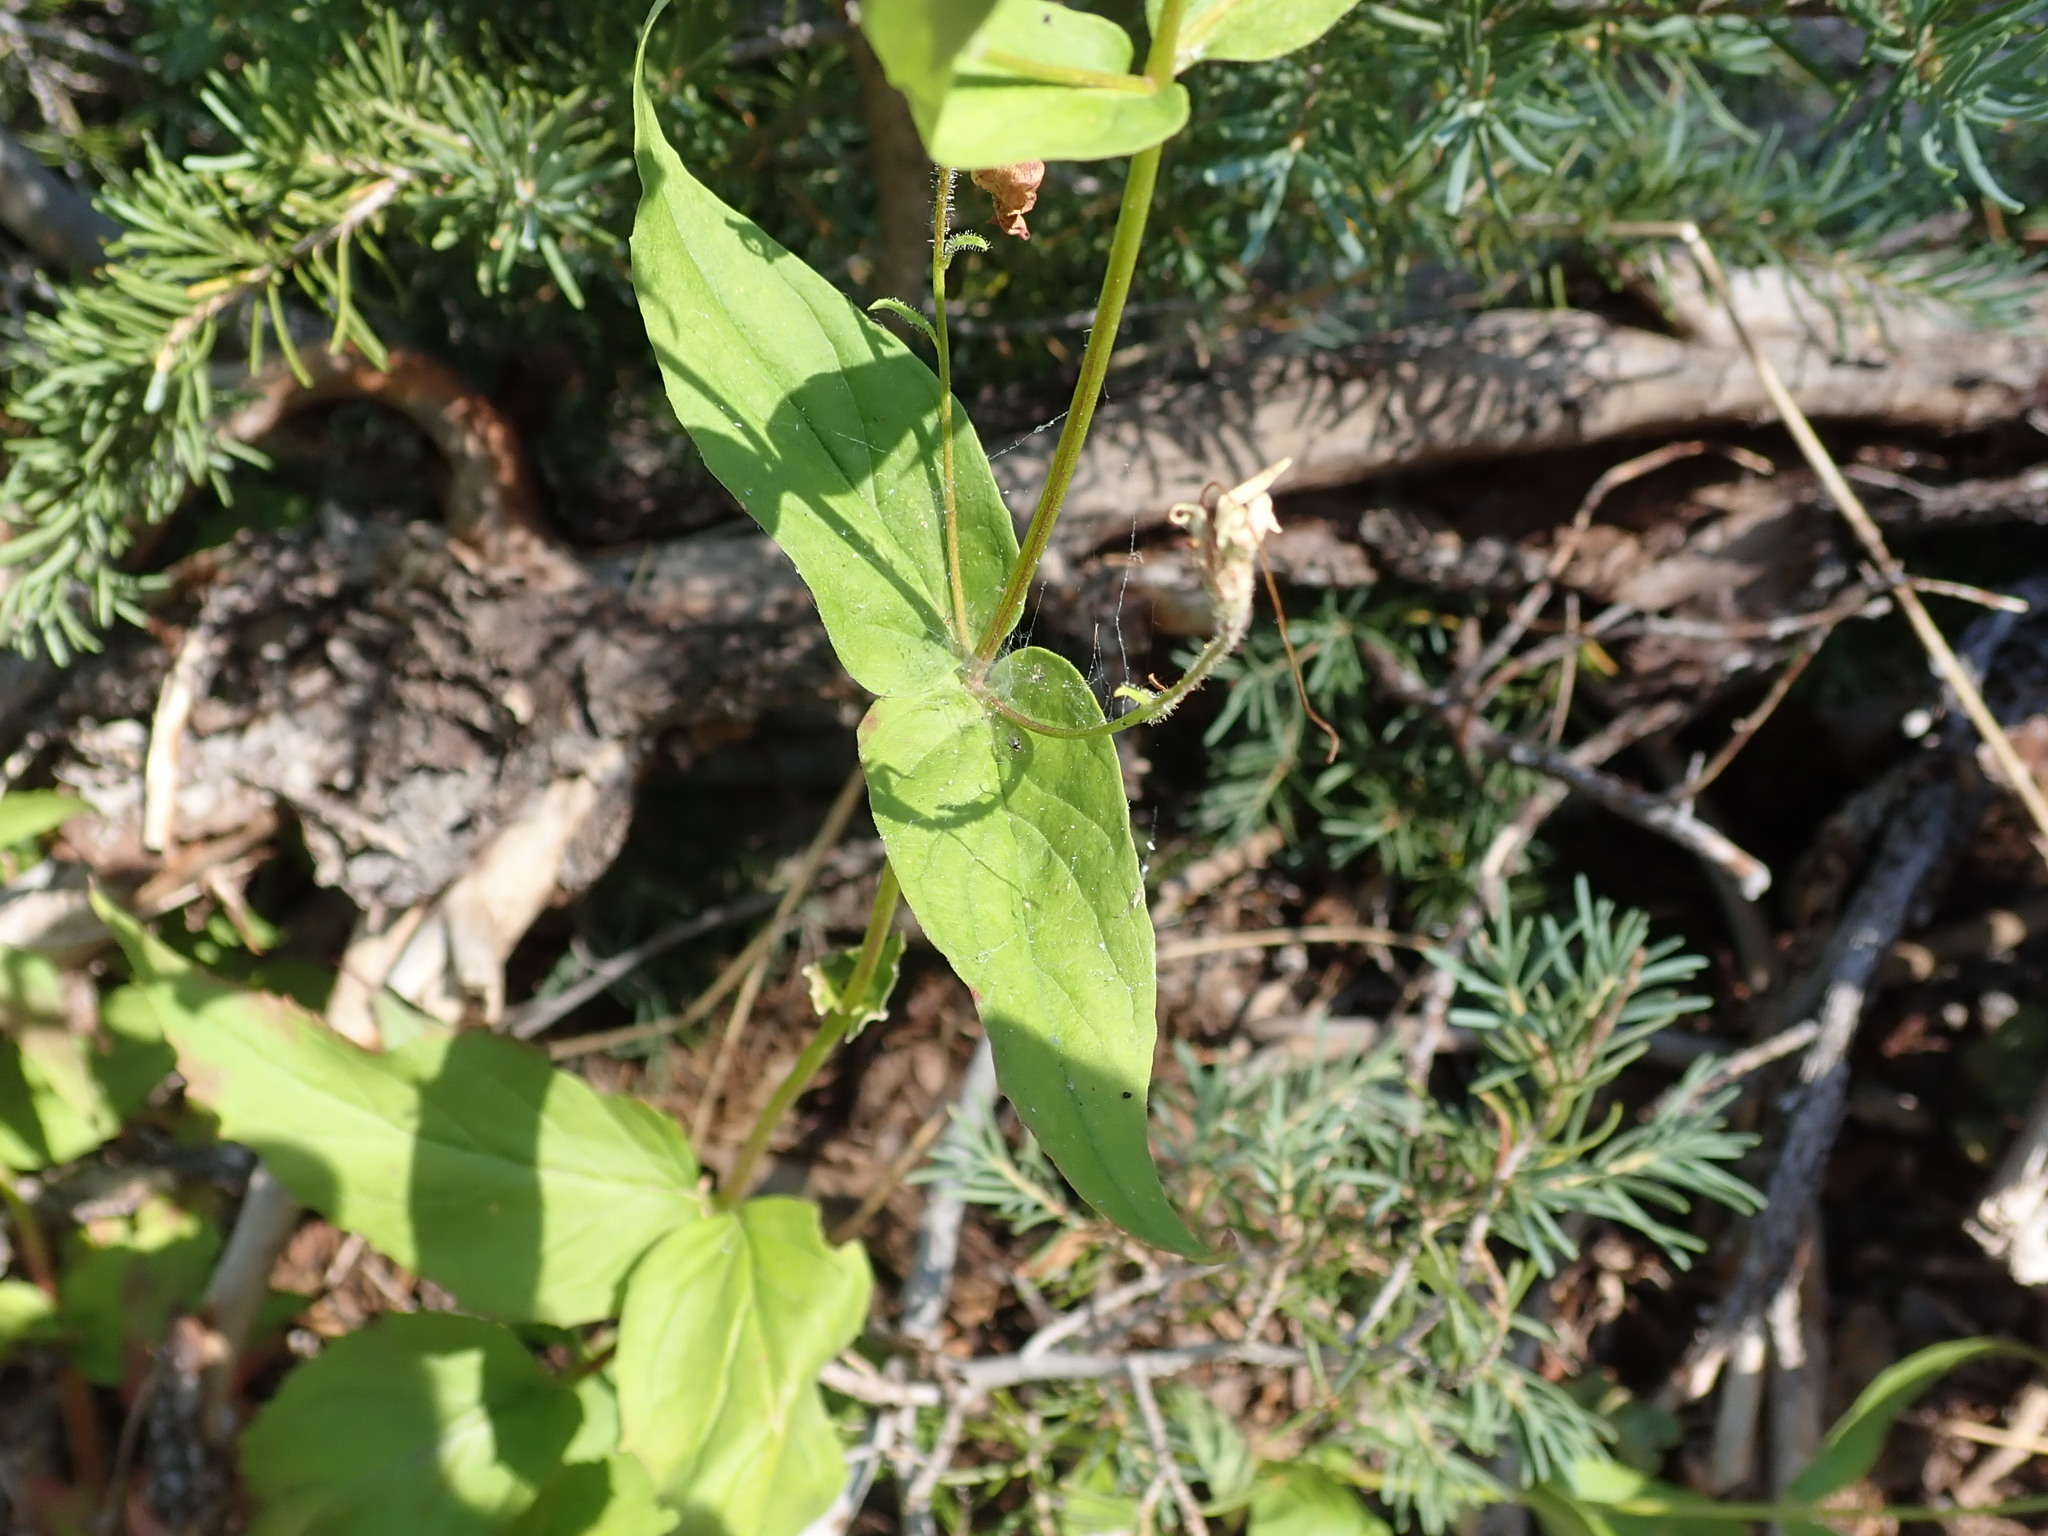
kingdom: Plantae
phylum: Tracheophyta
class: Magnoliopsida
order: Lamiales
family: Plantaginaceae
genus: Nothochelone
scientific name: Nothochelone nemorosa
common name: Woodland beardtongue
